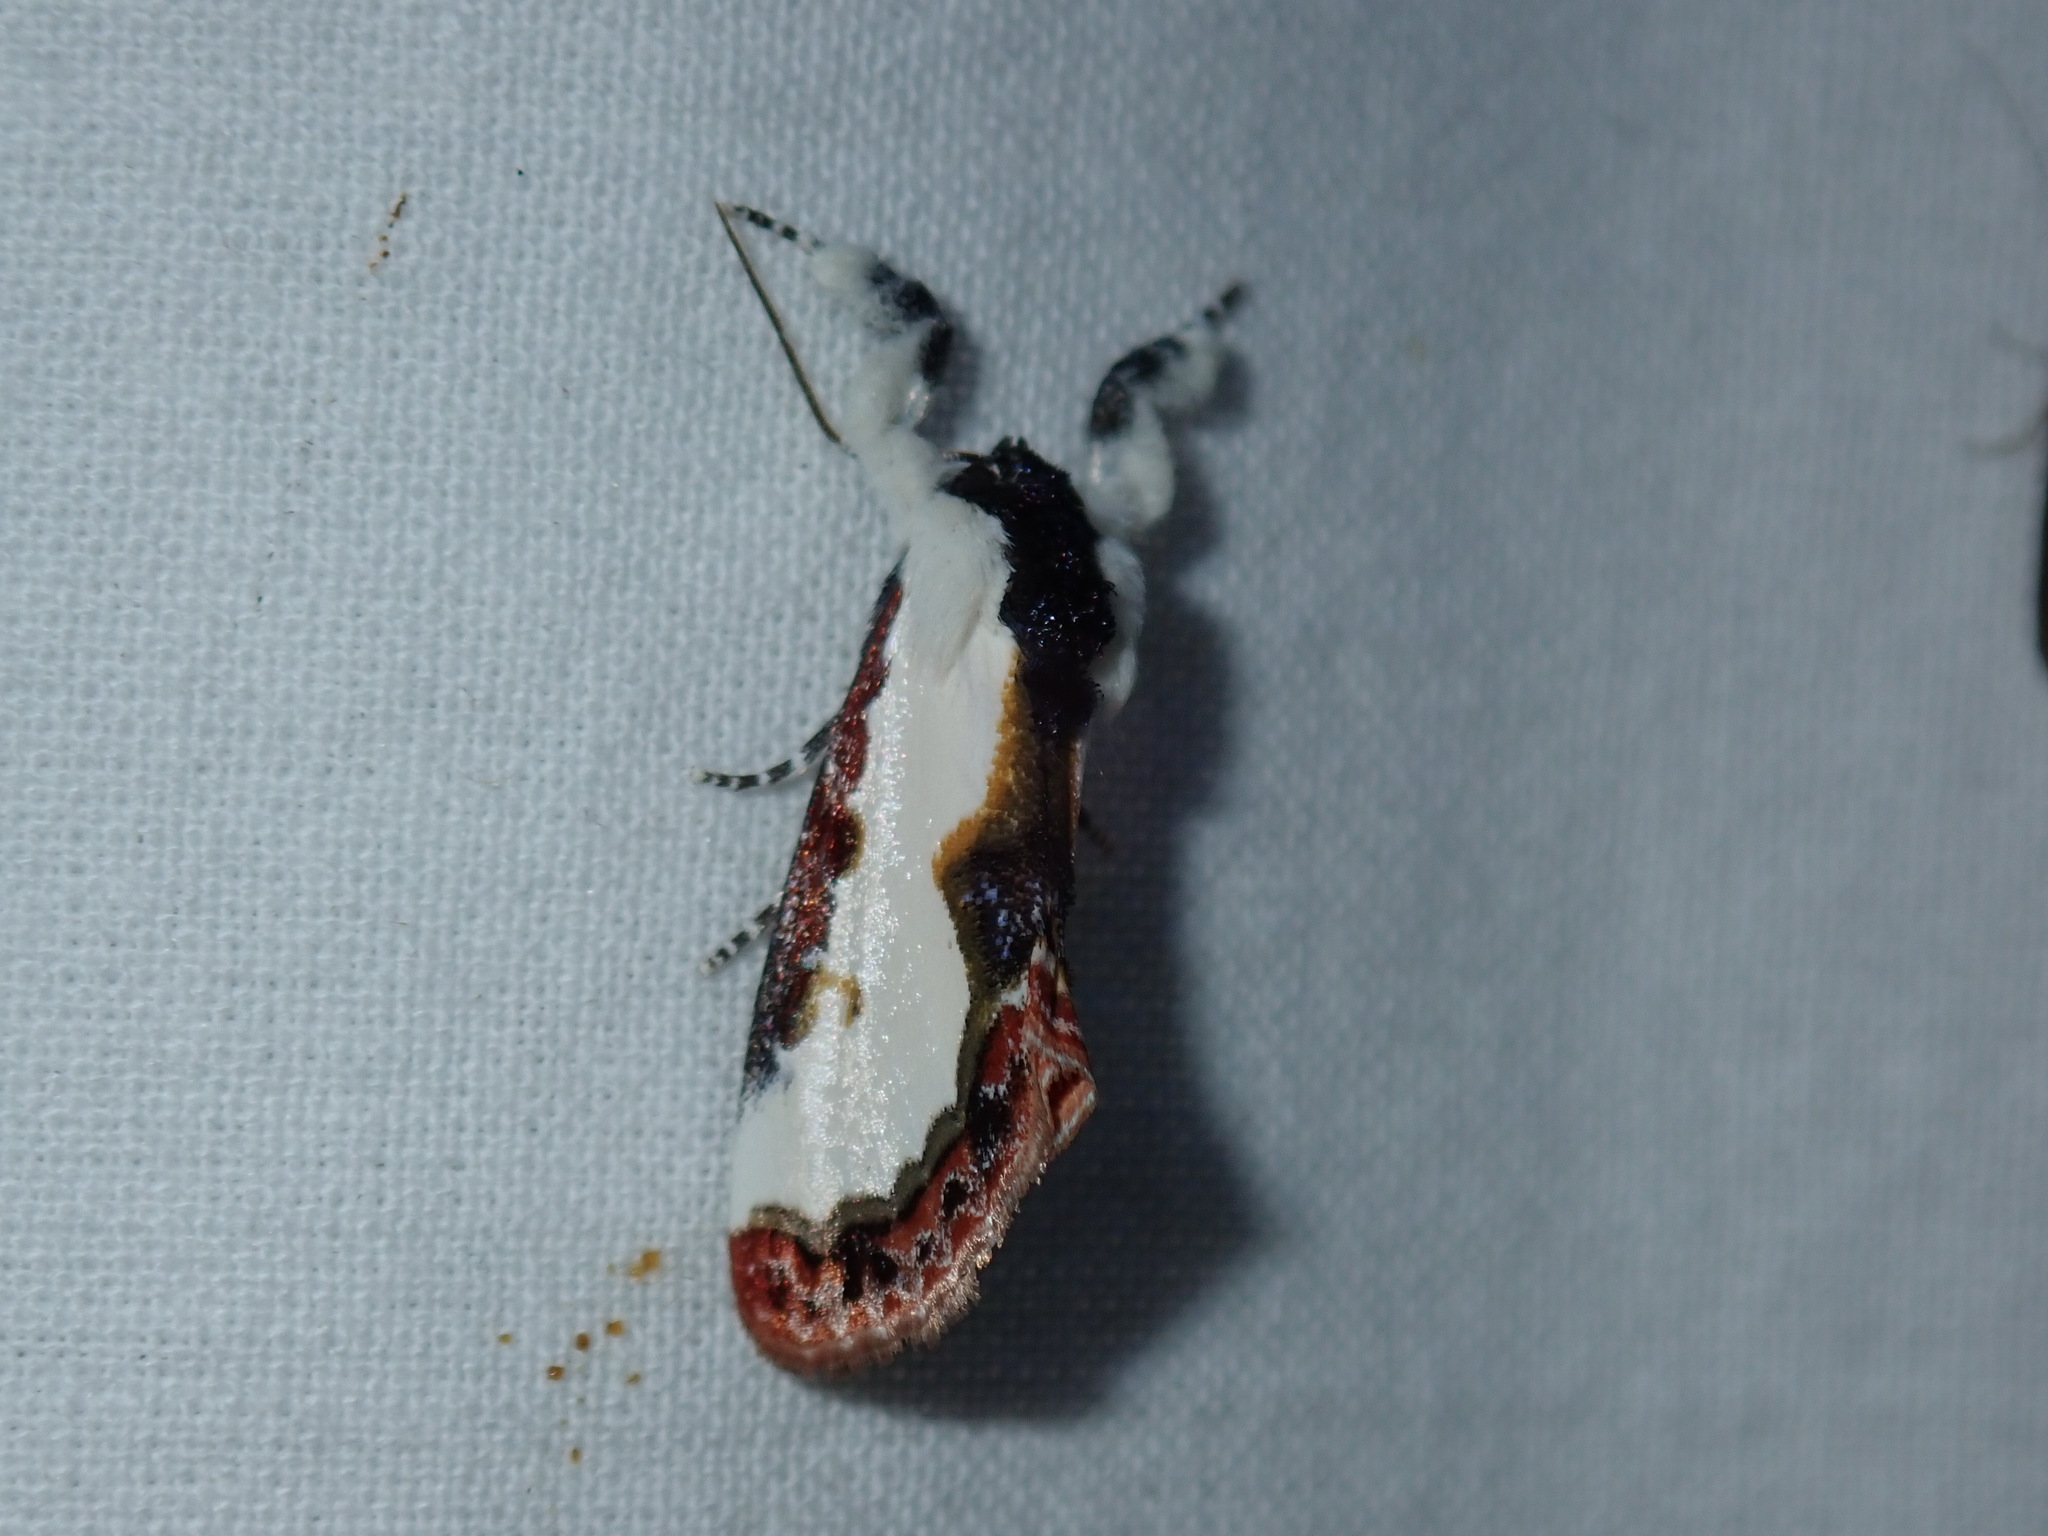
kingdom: Animalia
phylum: Arthropoda
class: Insecta
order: Lepidoptera
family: Noctuidae
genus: Eudryas
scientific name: Eudryas unio
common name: Pearly wood-nymph
